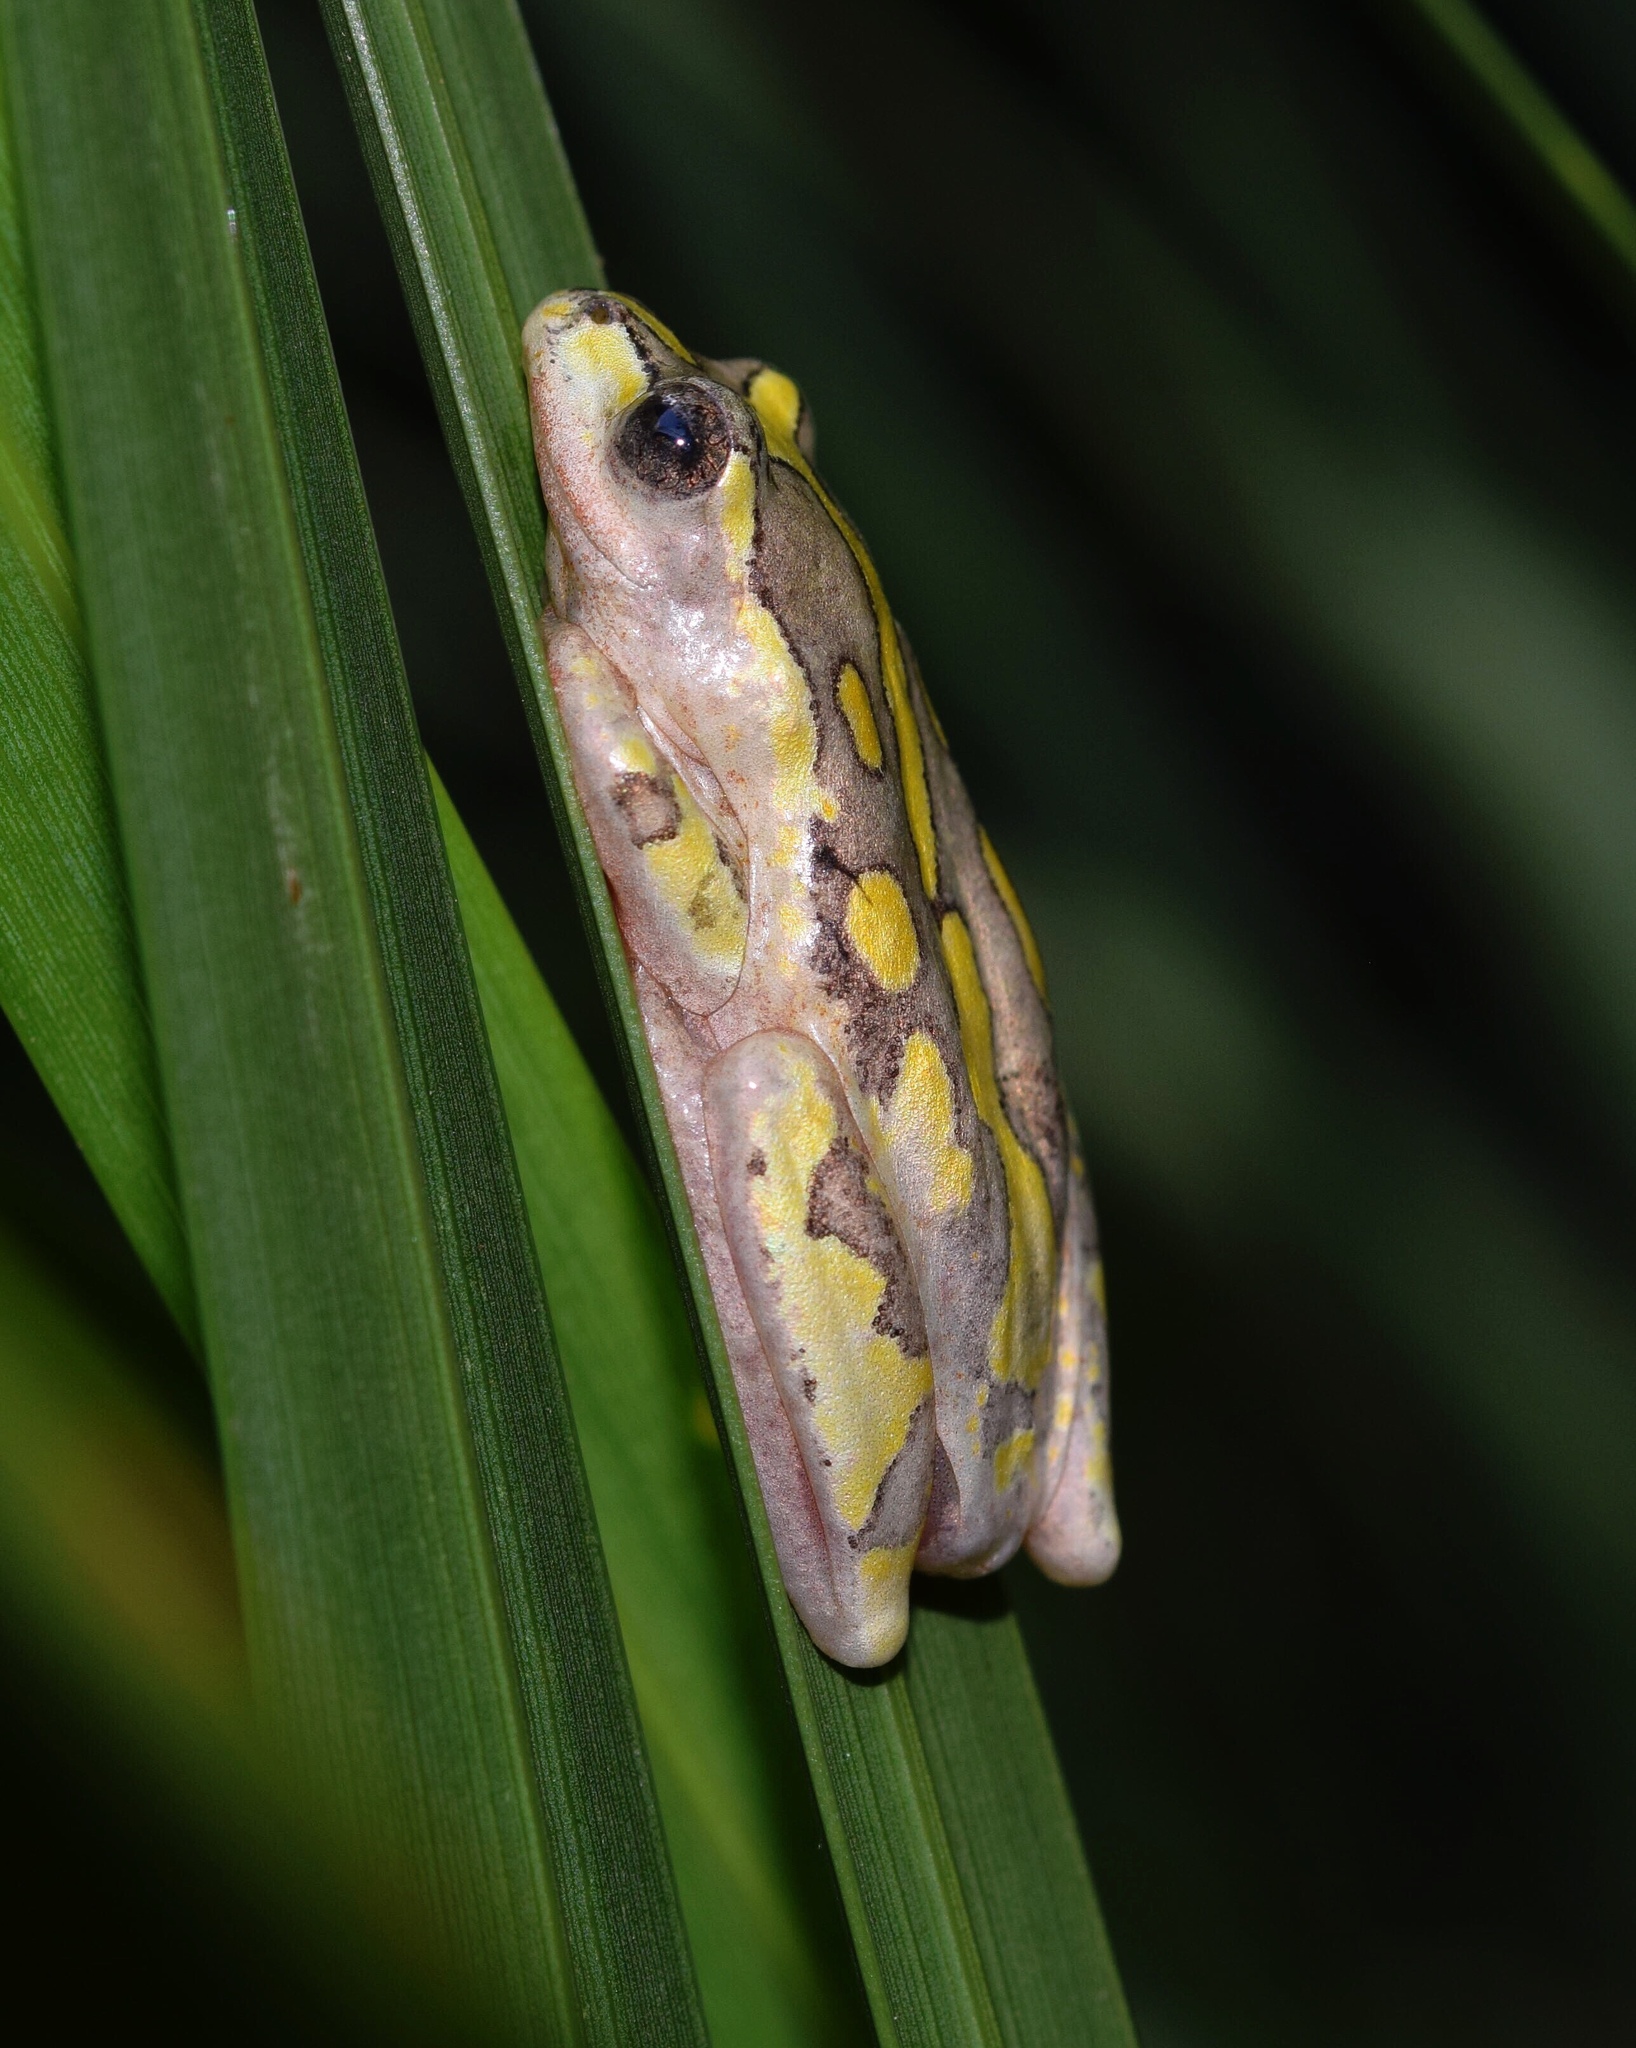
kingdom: Animalia
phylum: Chordata
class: Amphibia
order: Anura
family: Hyperoliidae
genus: Hyperolius
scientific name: Hyperolius marmoratus
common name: Painted reed frog
